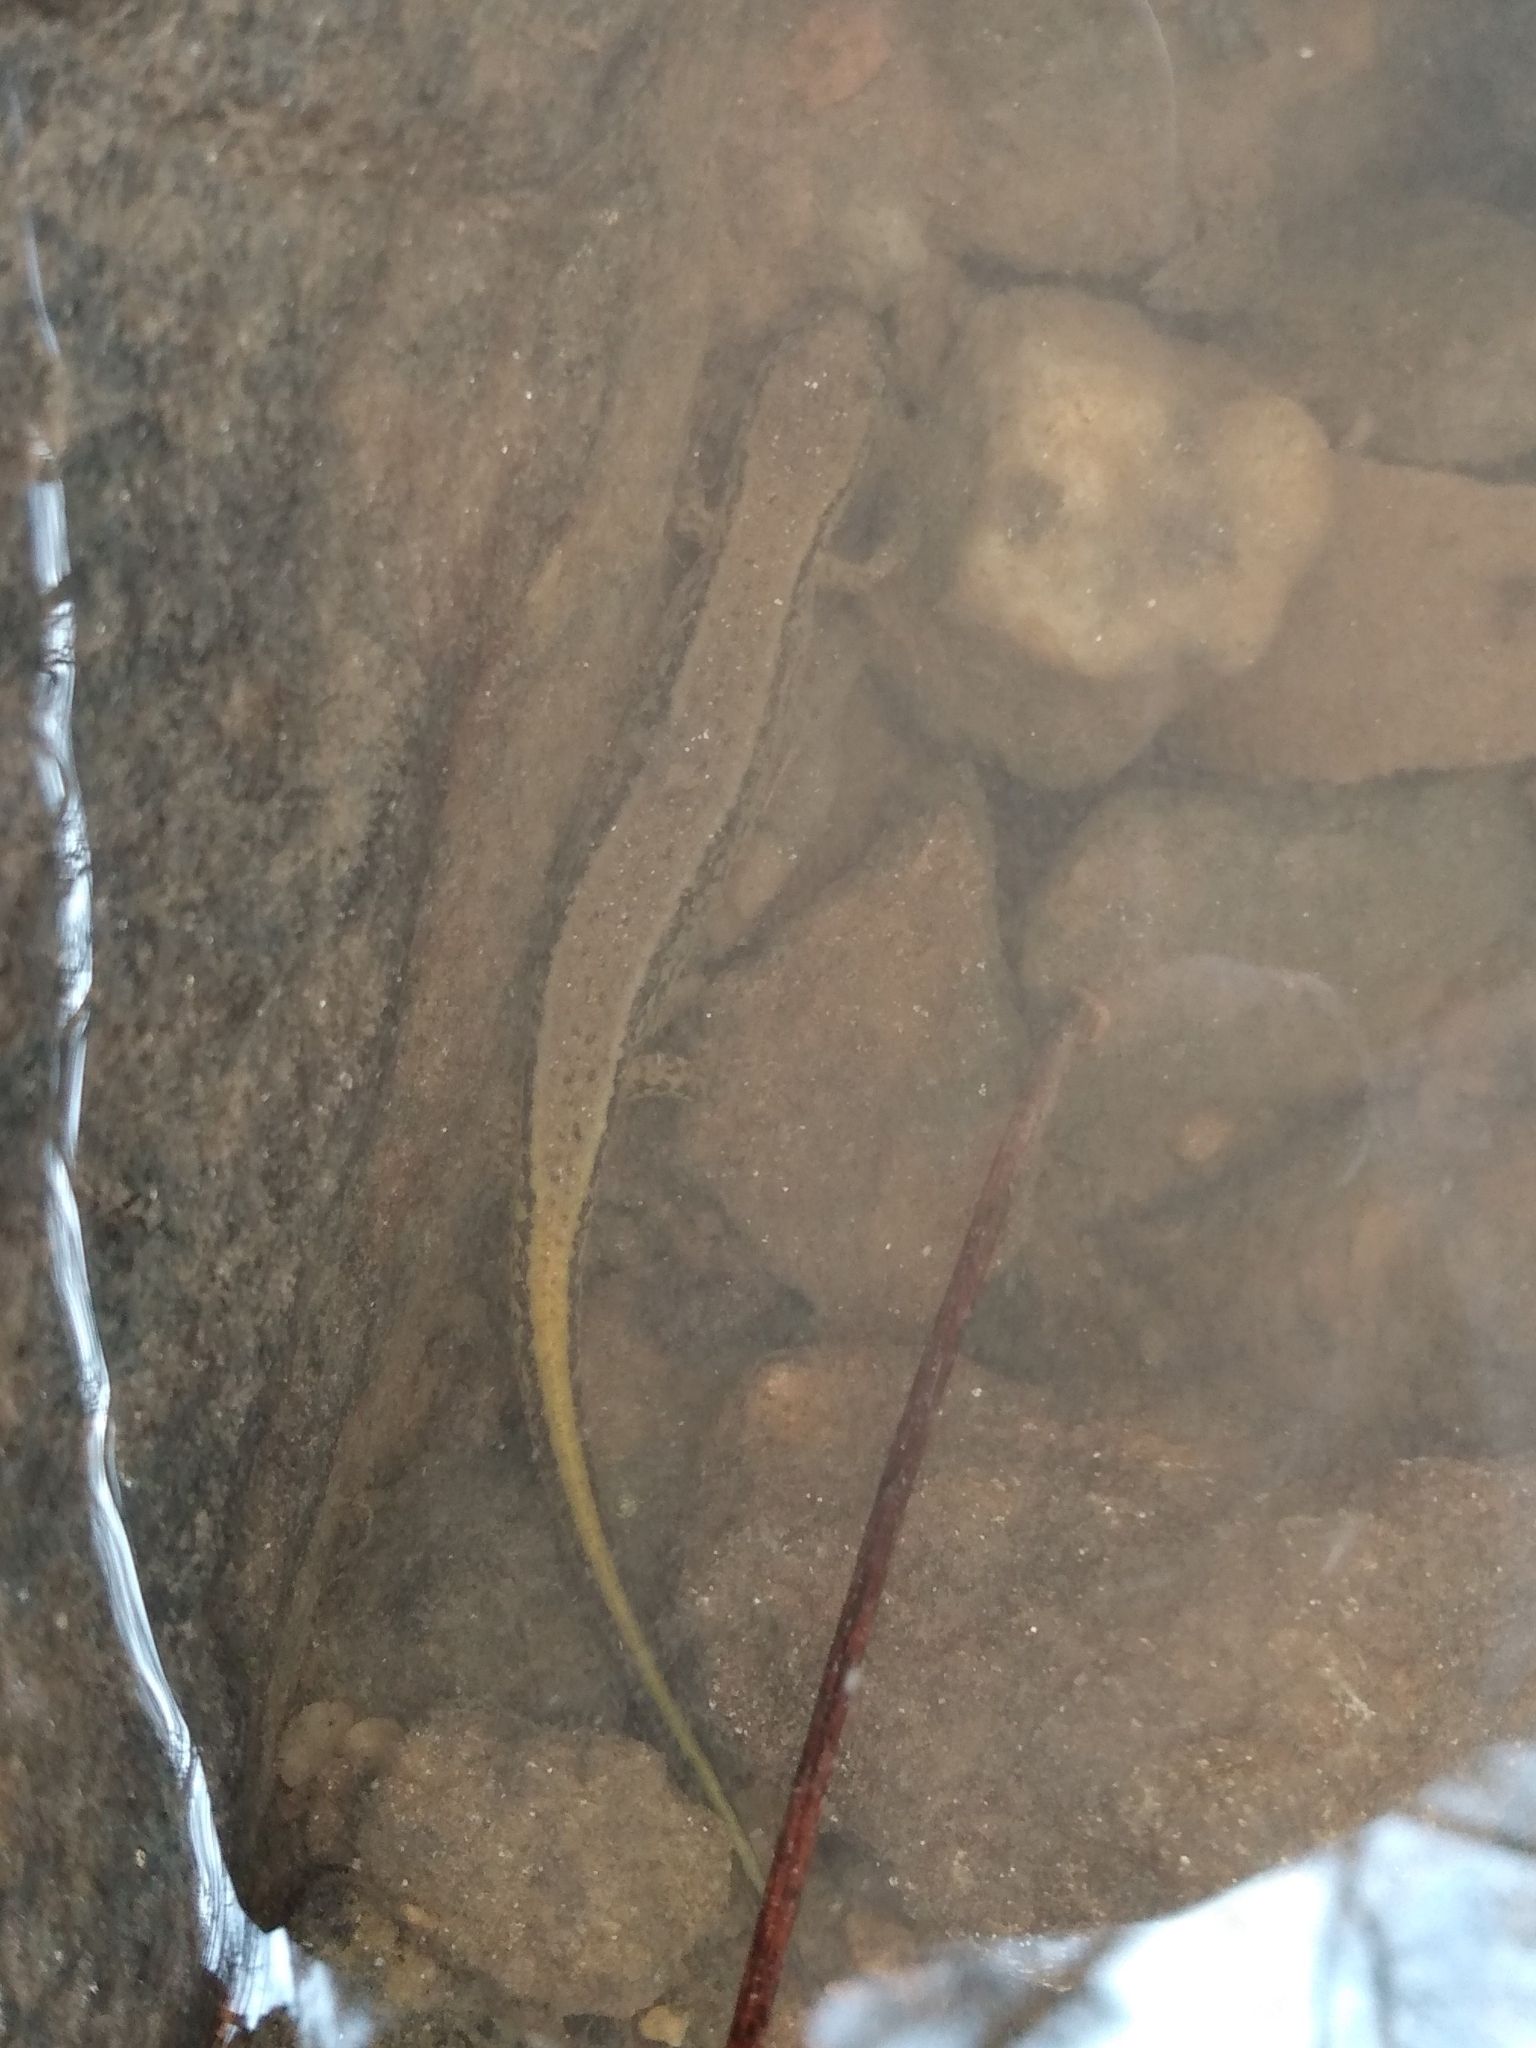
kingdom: Animalia
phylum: Chordata
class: Amphibia
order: Caudata
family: Plethodontidae
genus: Eurycea
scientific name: Eurycea cirrigera
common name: Southern two-lined salamander
